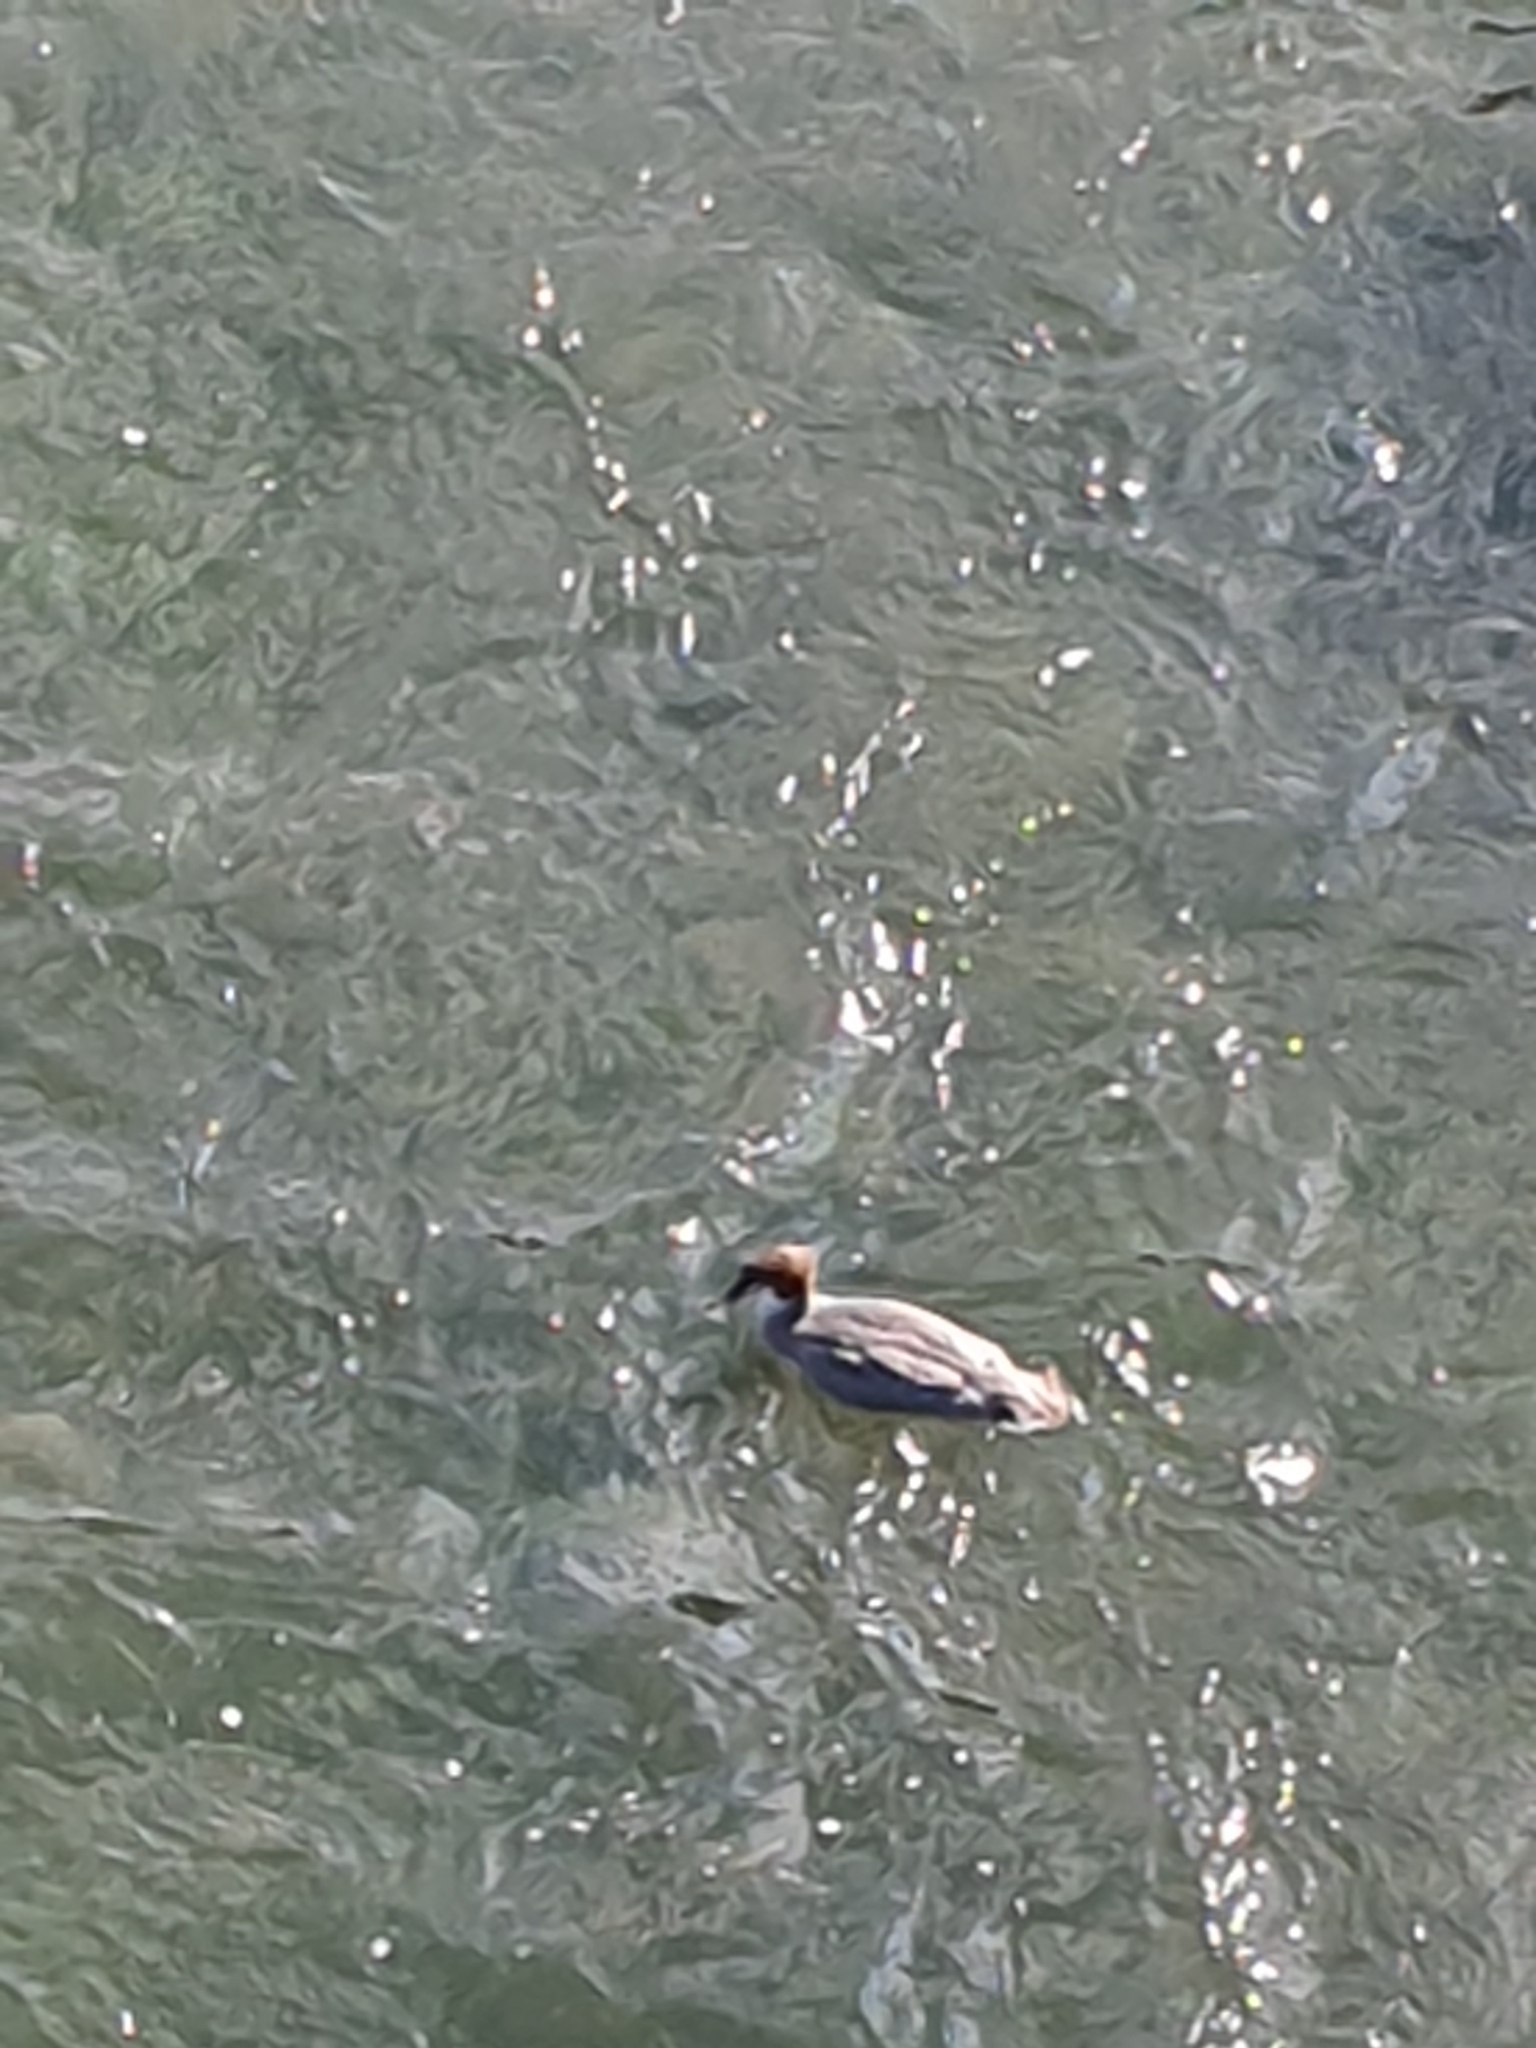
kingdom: Animalia
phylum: Chordata
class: Aves
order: Anseriformes
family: Anatidae
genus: Mergus
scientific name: Mergus merganser
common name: Common merganser
